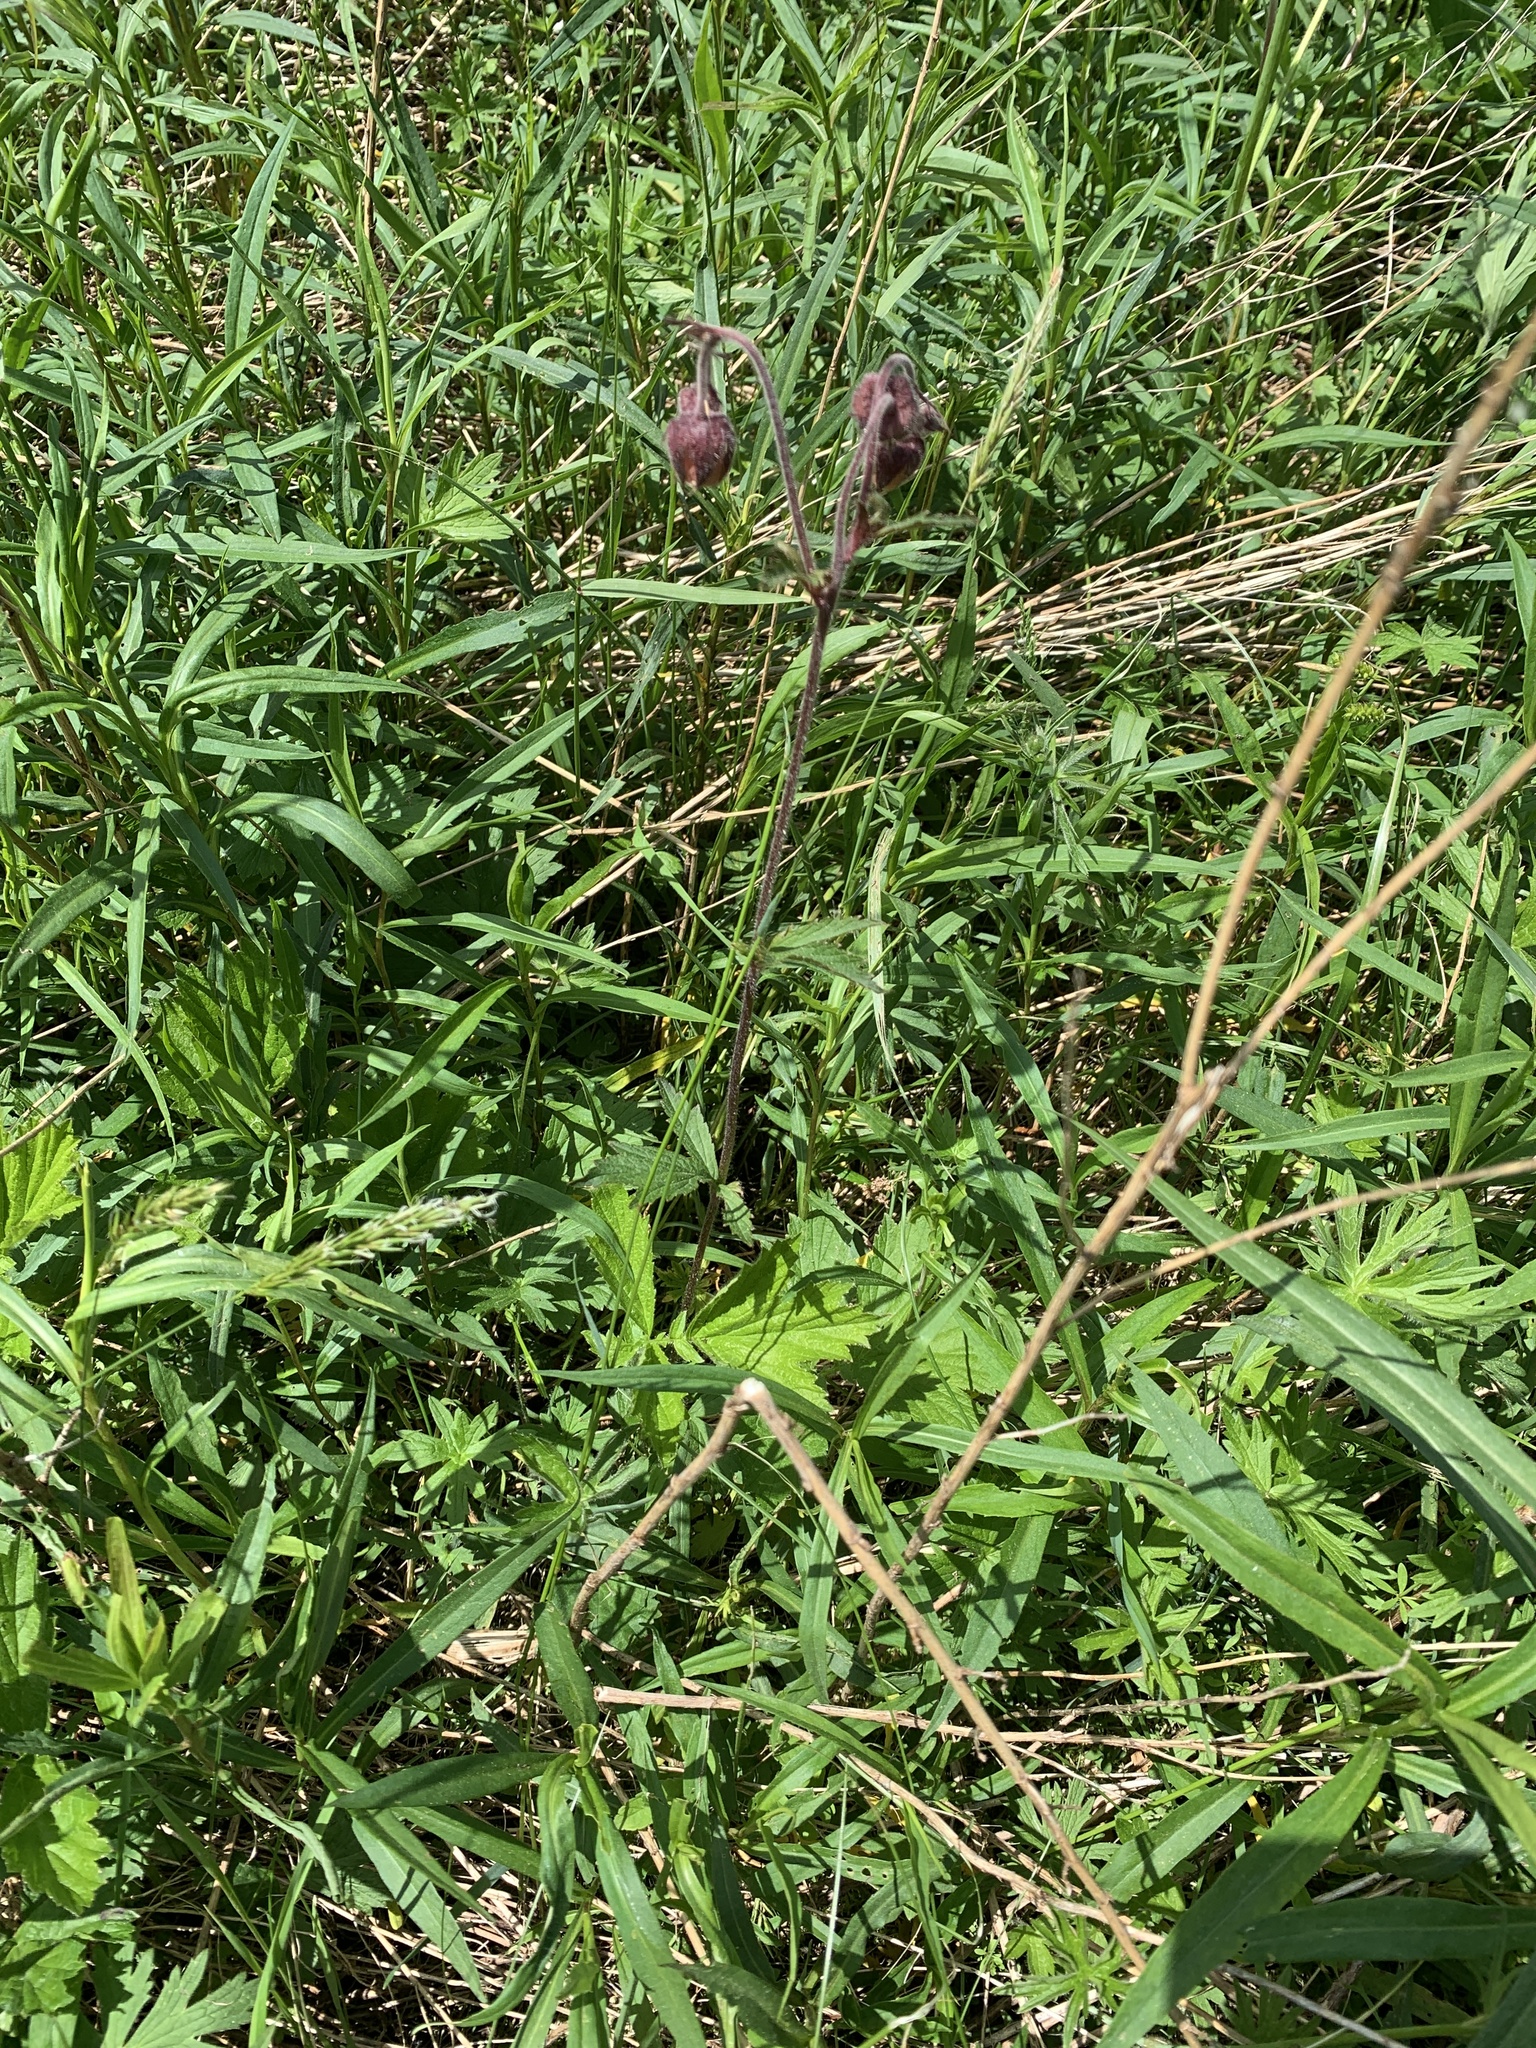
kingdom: Plantae
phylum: Tracheophyta
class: Magnoliopsida
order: Rosales
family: Rosaceae
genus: Geum
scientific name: Geum rivale
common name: Water avens
